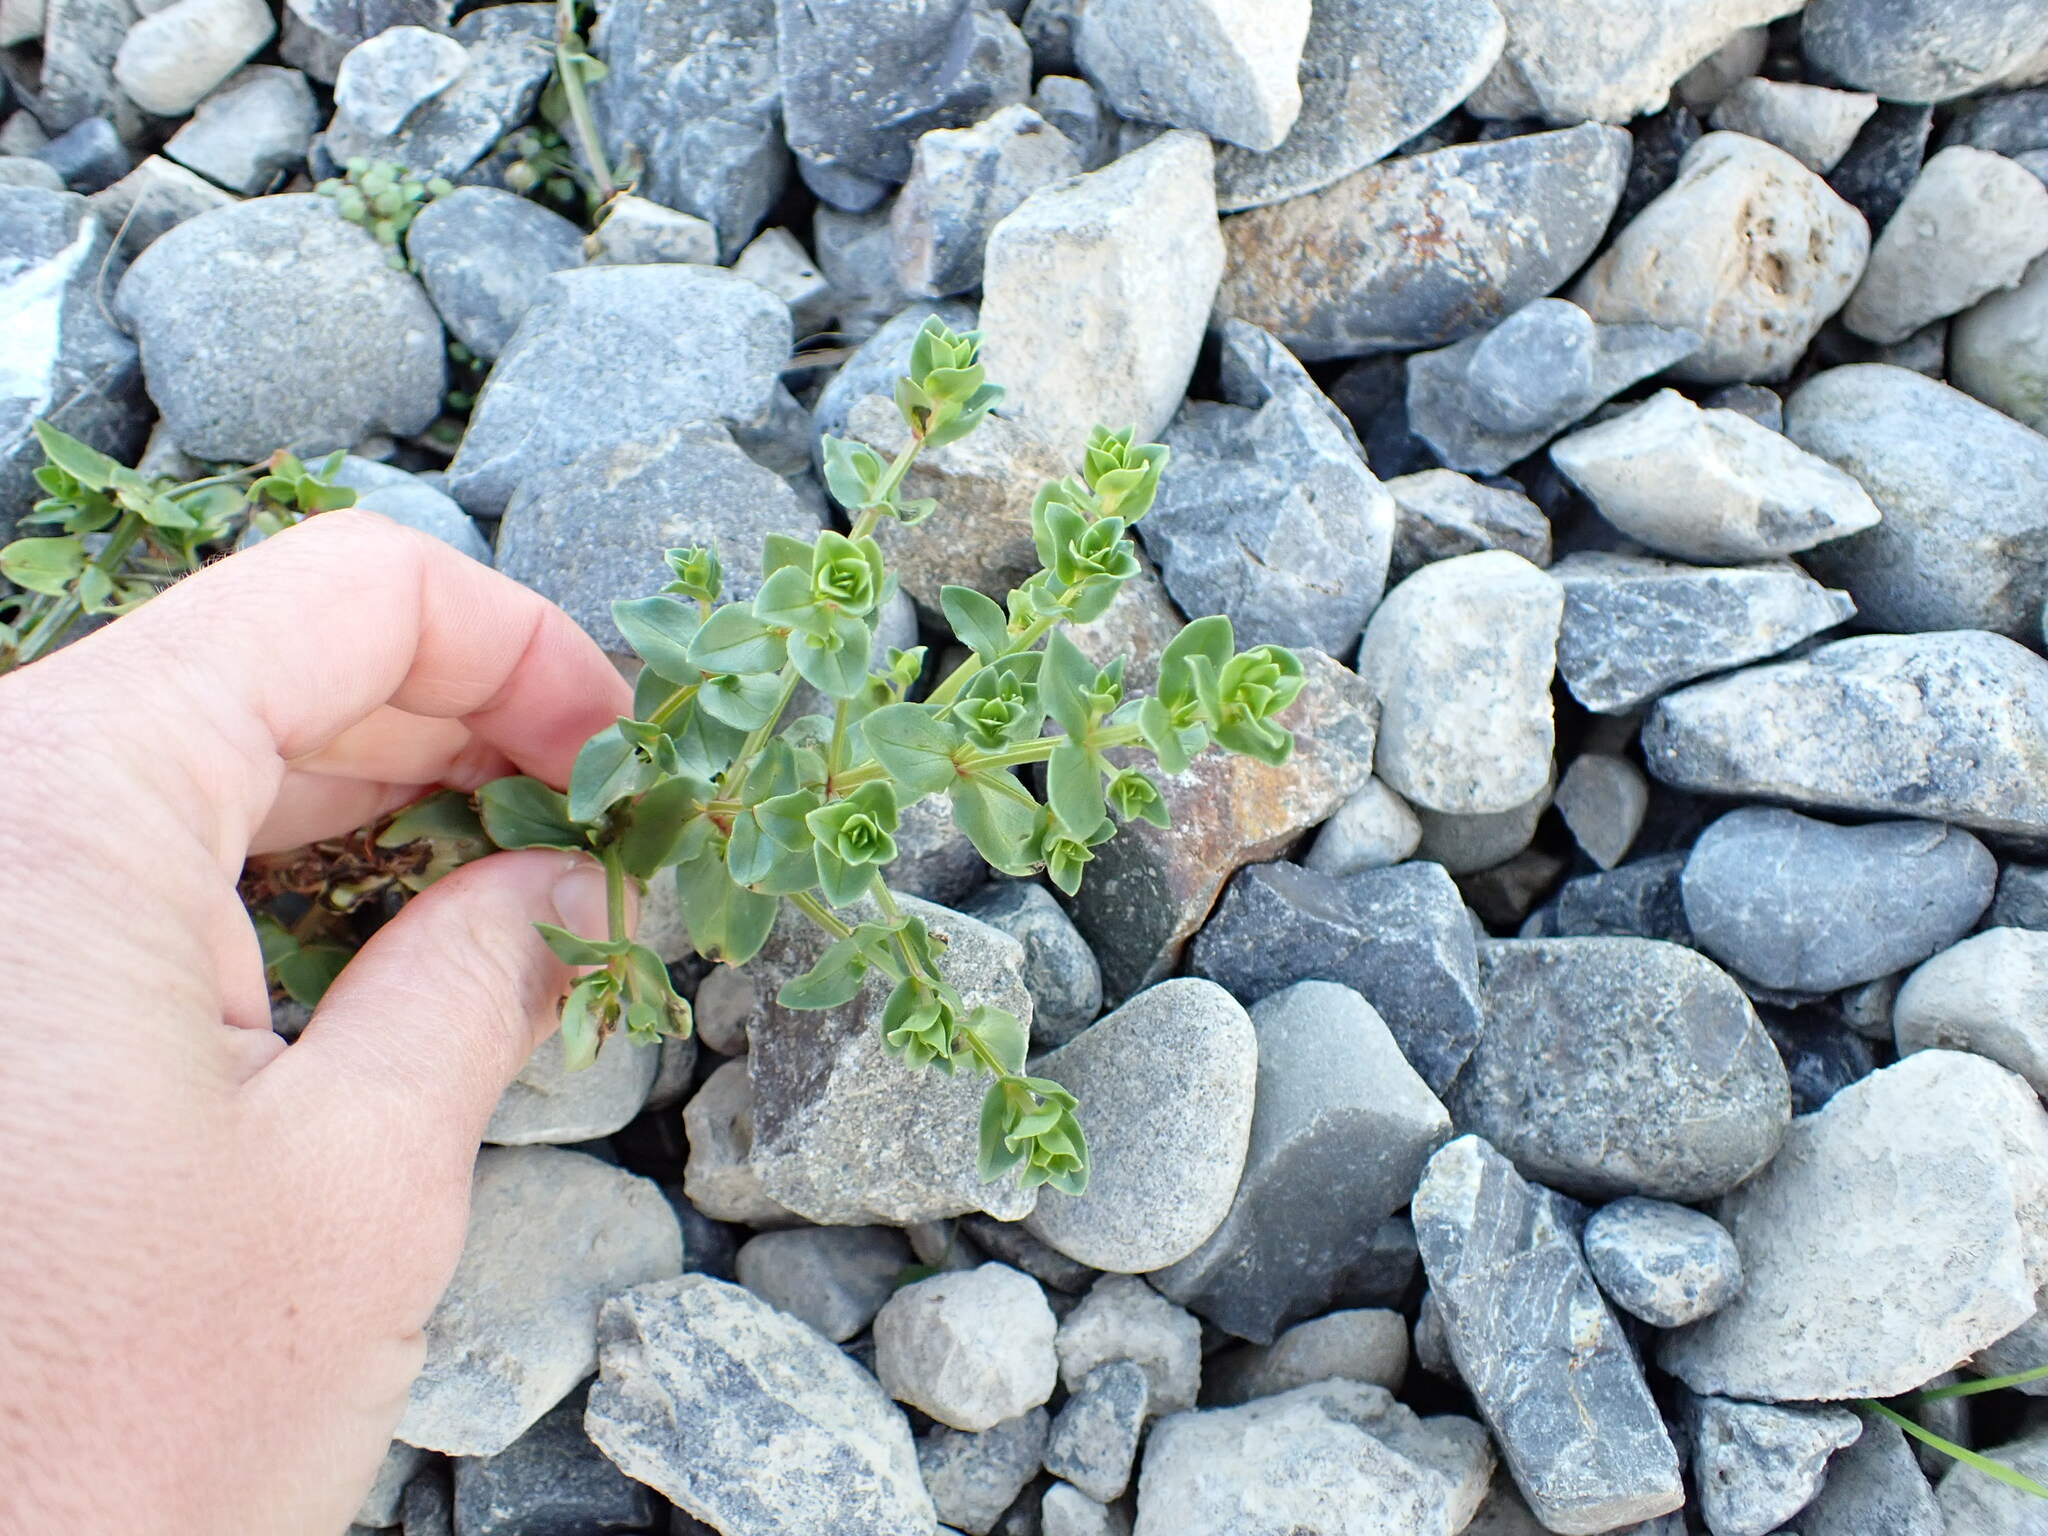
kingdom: Plantae
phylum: Tracheophyta
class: Magnoliopsida
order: Ericales
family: Primulaceae
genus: Lysimachia
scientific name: Lysimachia arvensis
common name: Scarlet pimpernel
